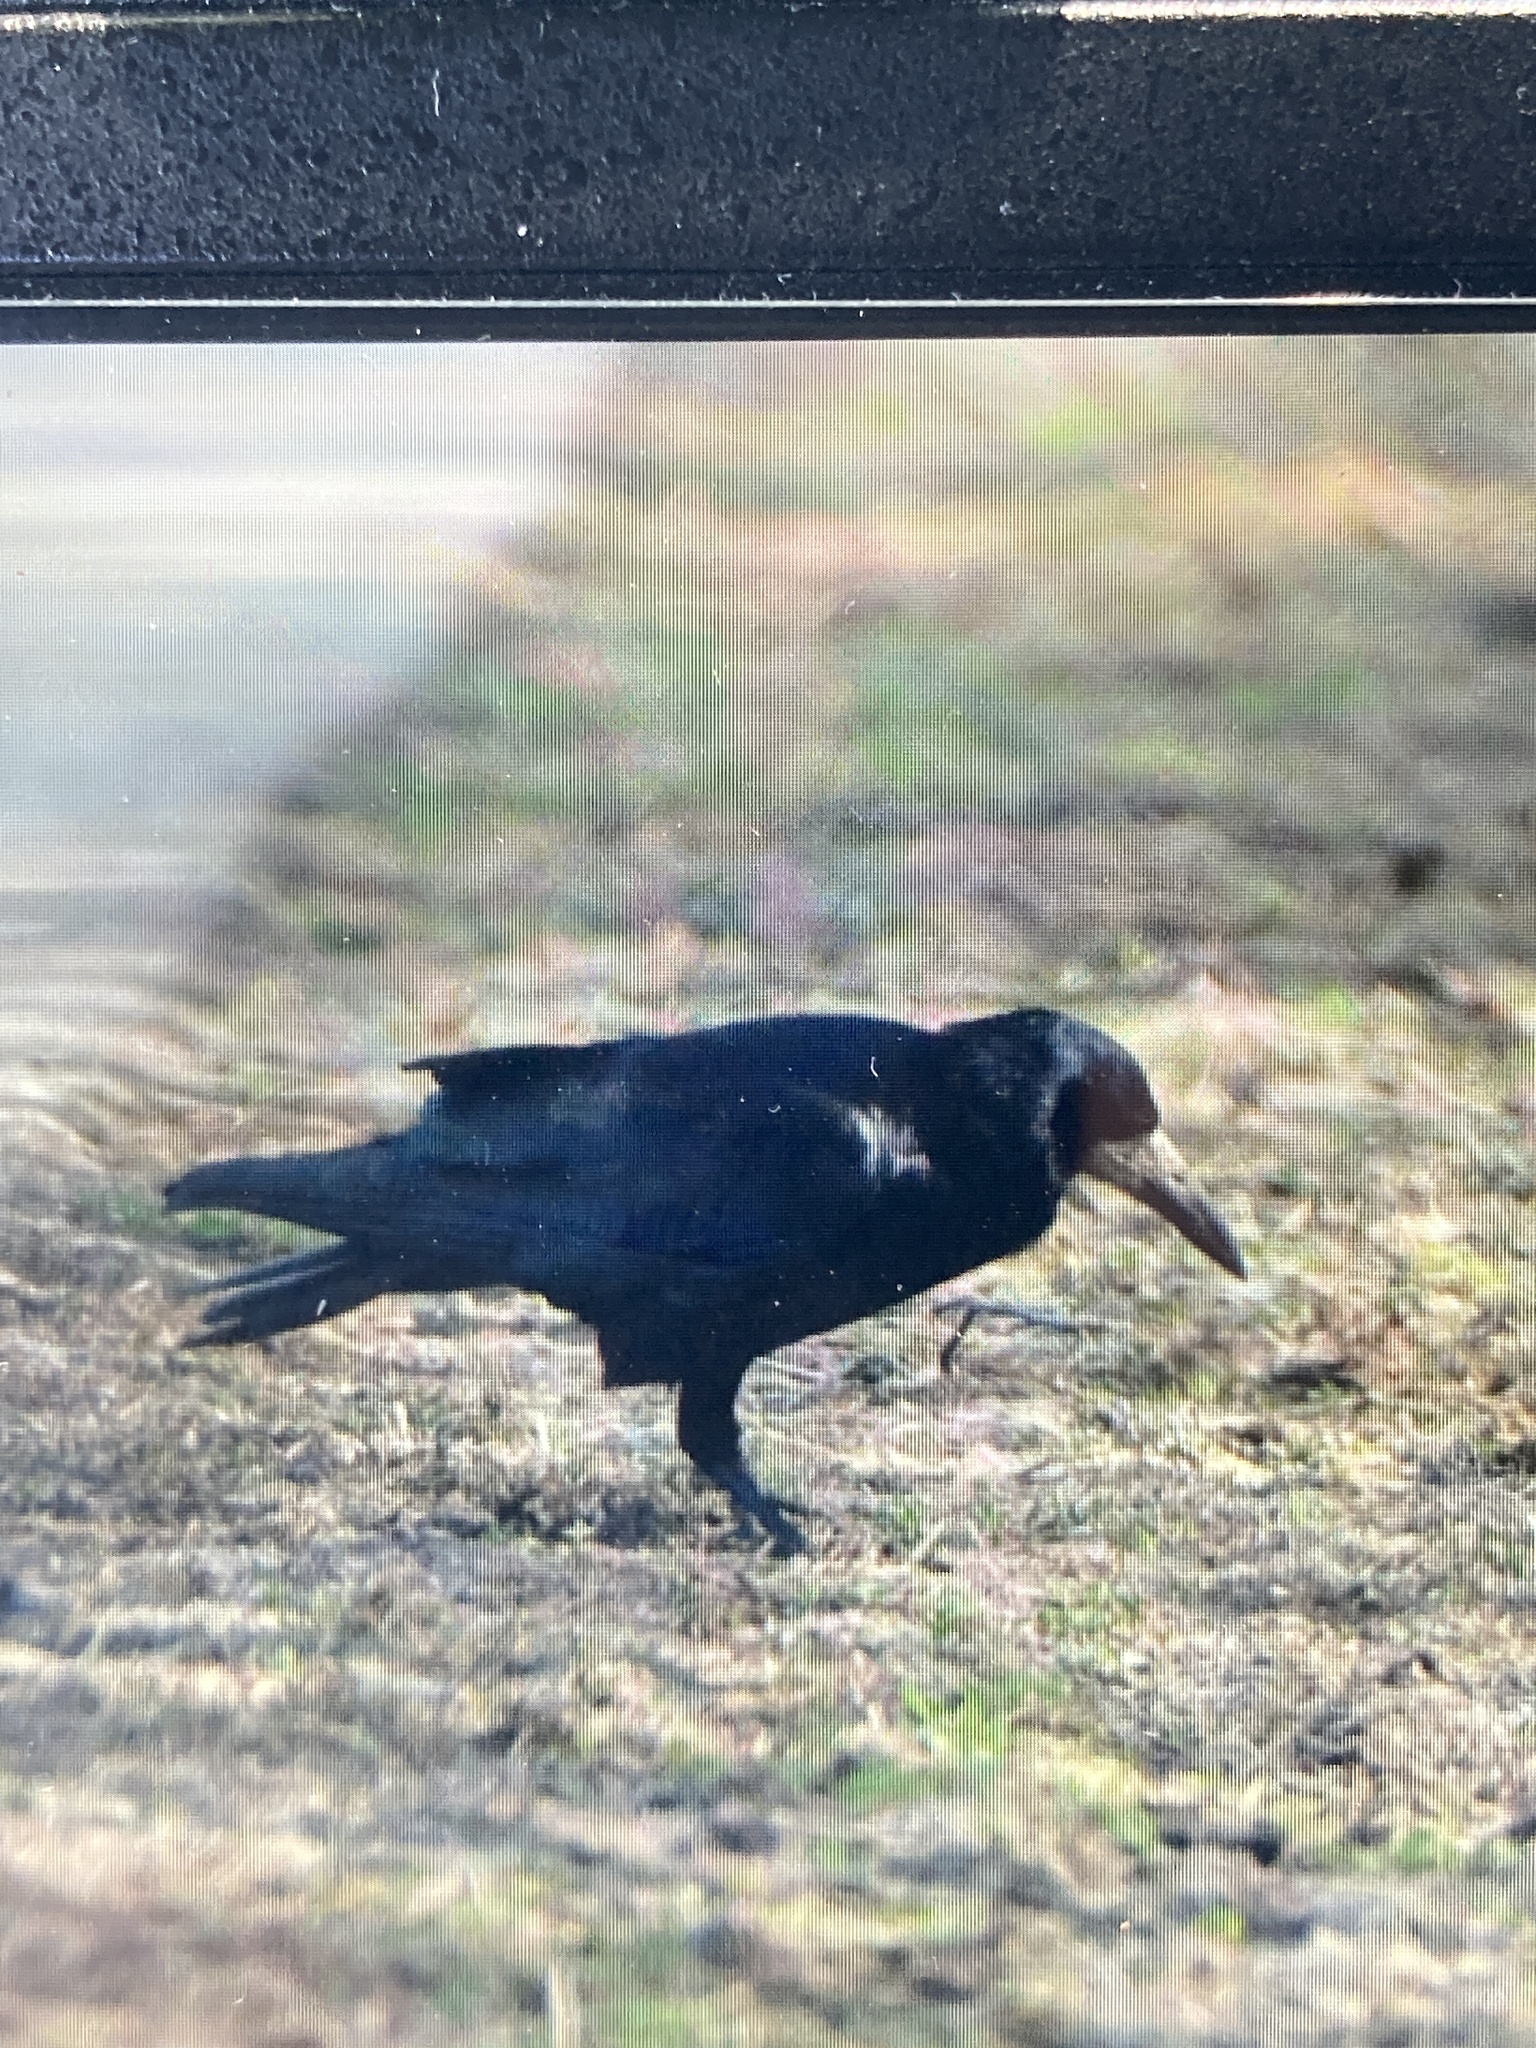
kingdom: Animalia
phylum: Chordata
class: Aves
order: Passeriformes
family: Corvidae
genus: Corvus
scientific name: Corvus frugilegus
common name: Rook
